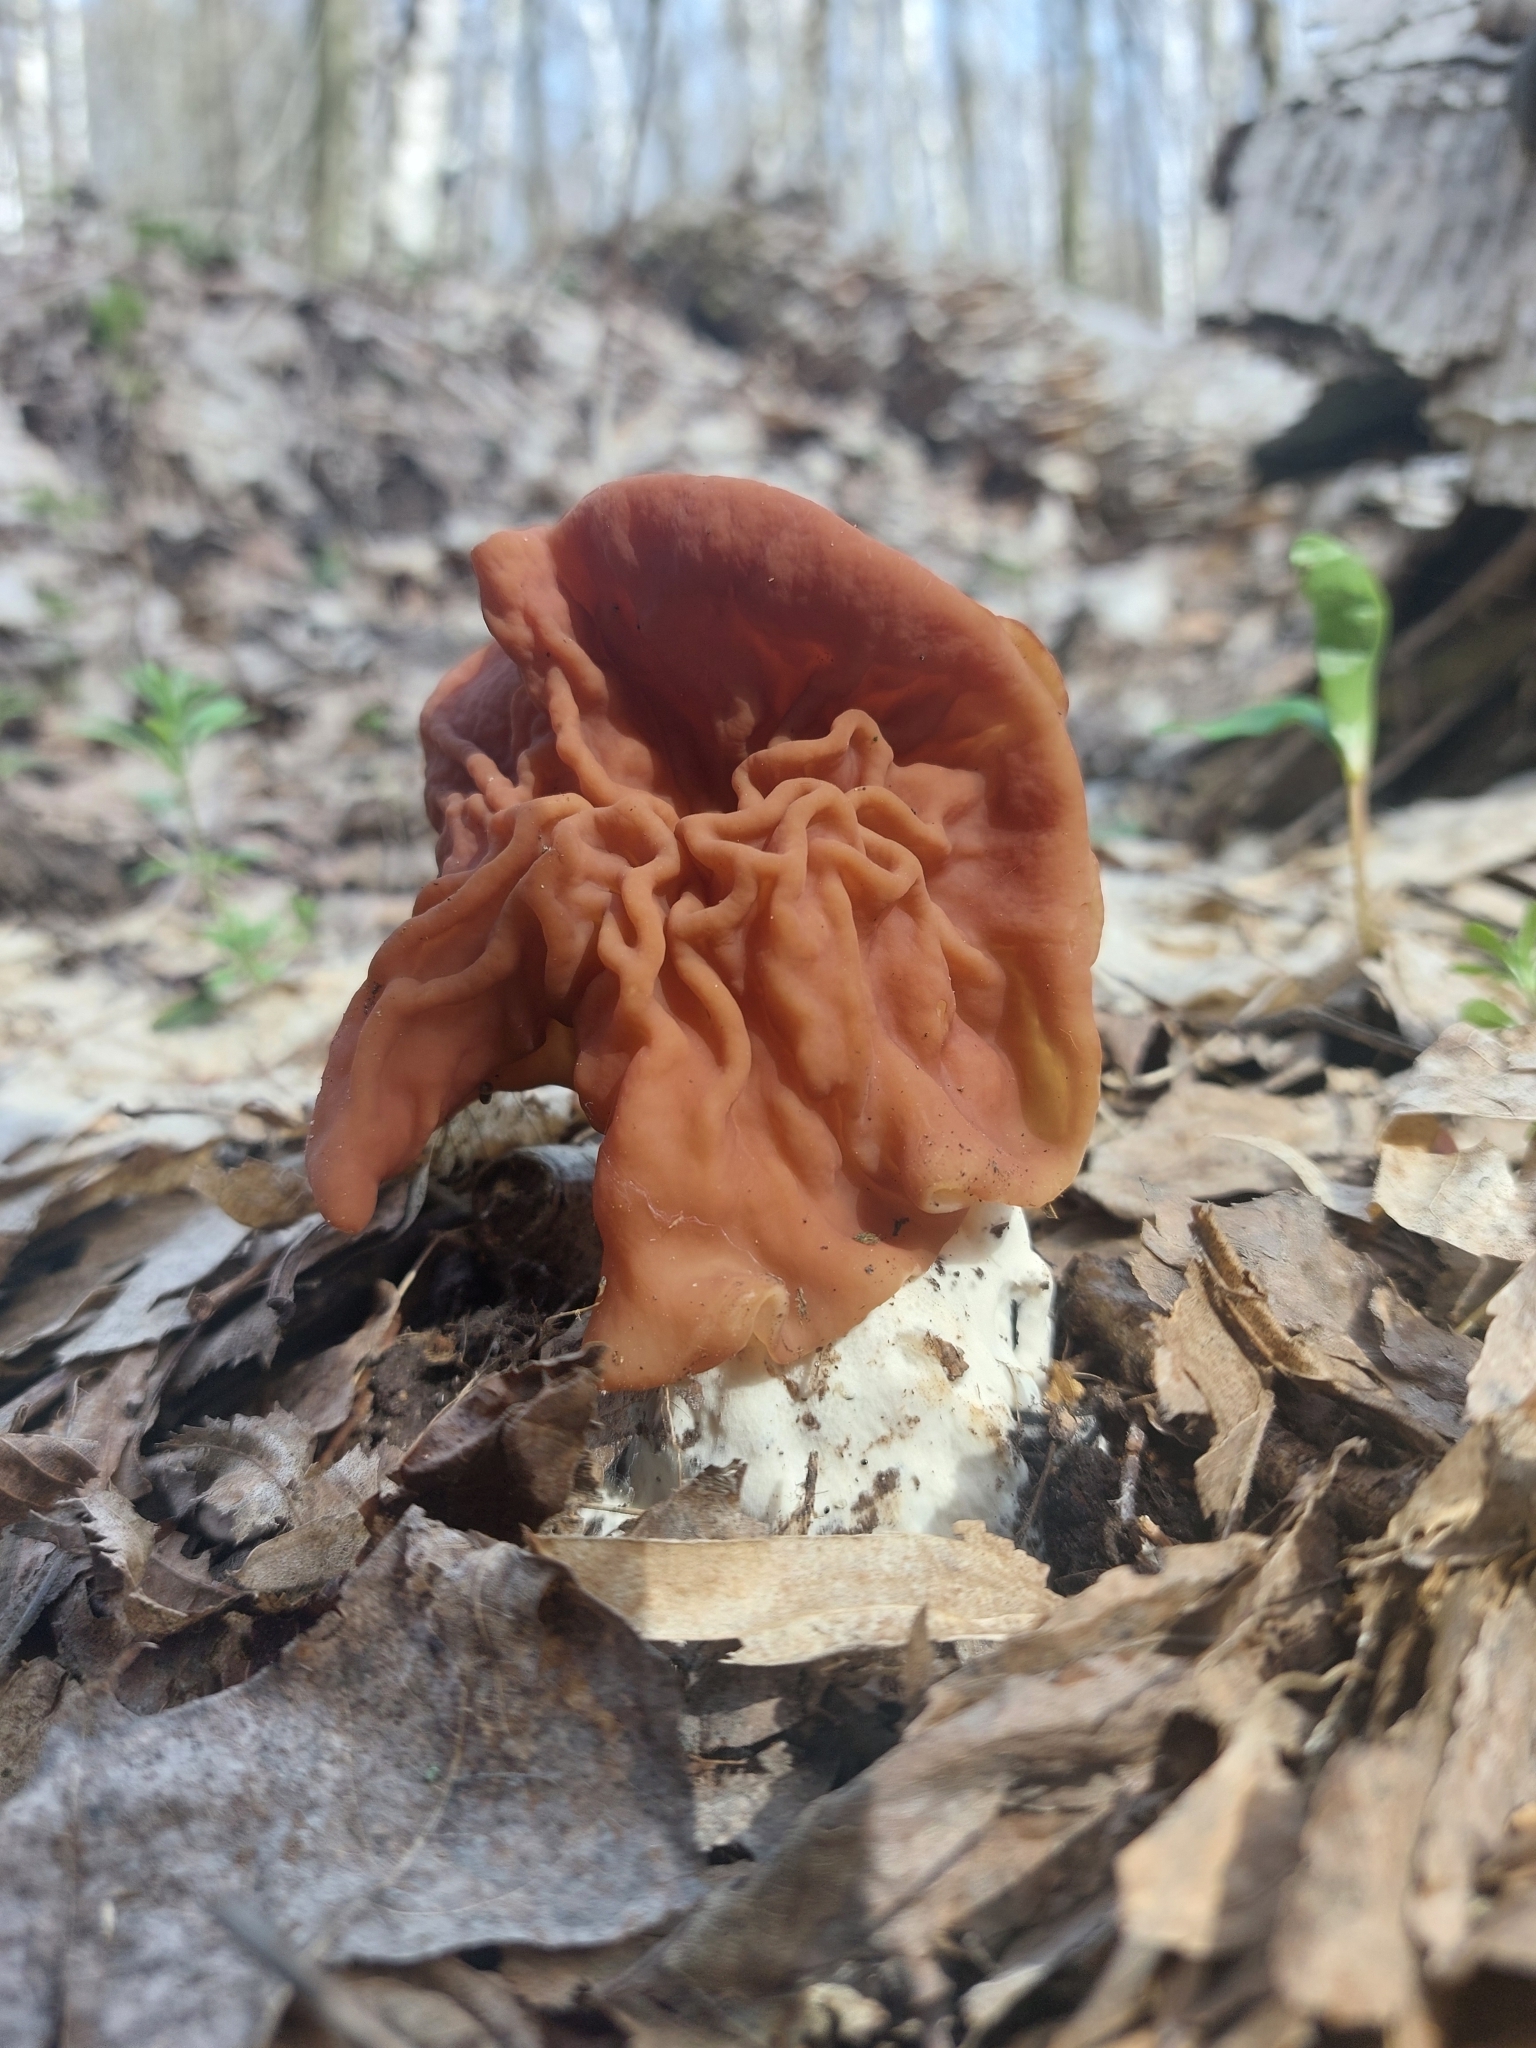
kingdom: Fungi
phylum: Ascomycota
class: Pezizomycetes
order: Pezizales
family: Discinaceae
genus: Discina
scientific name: Discina fastigiata
